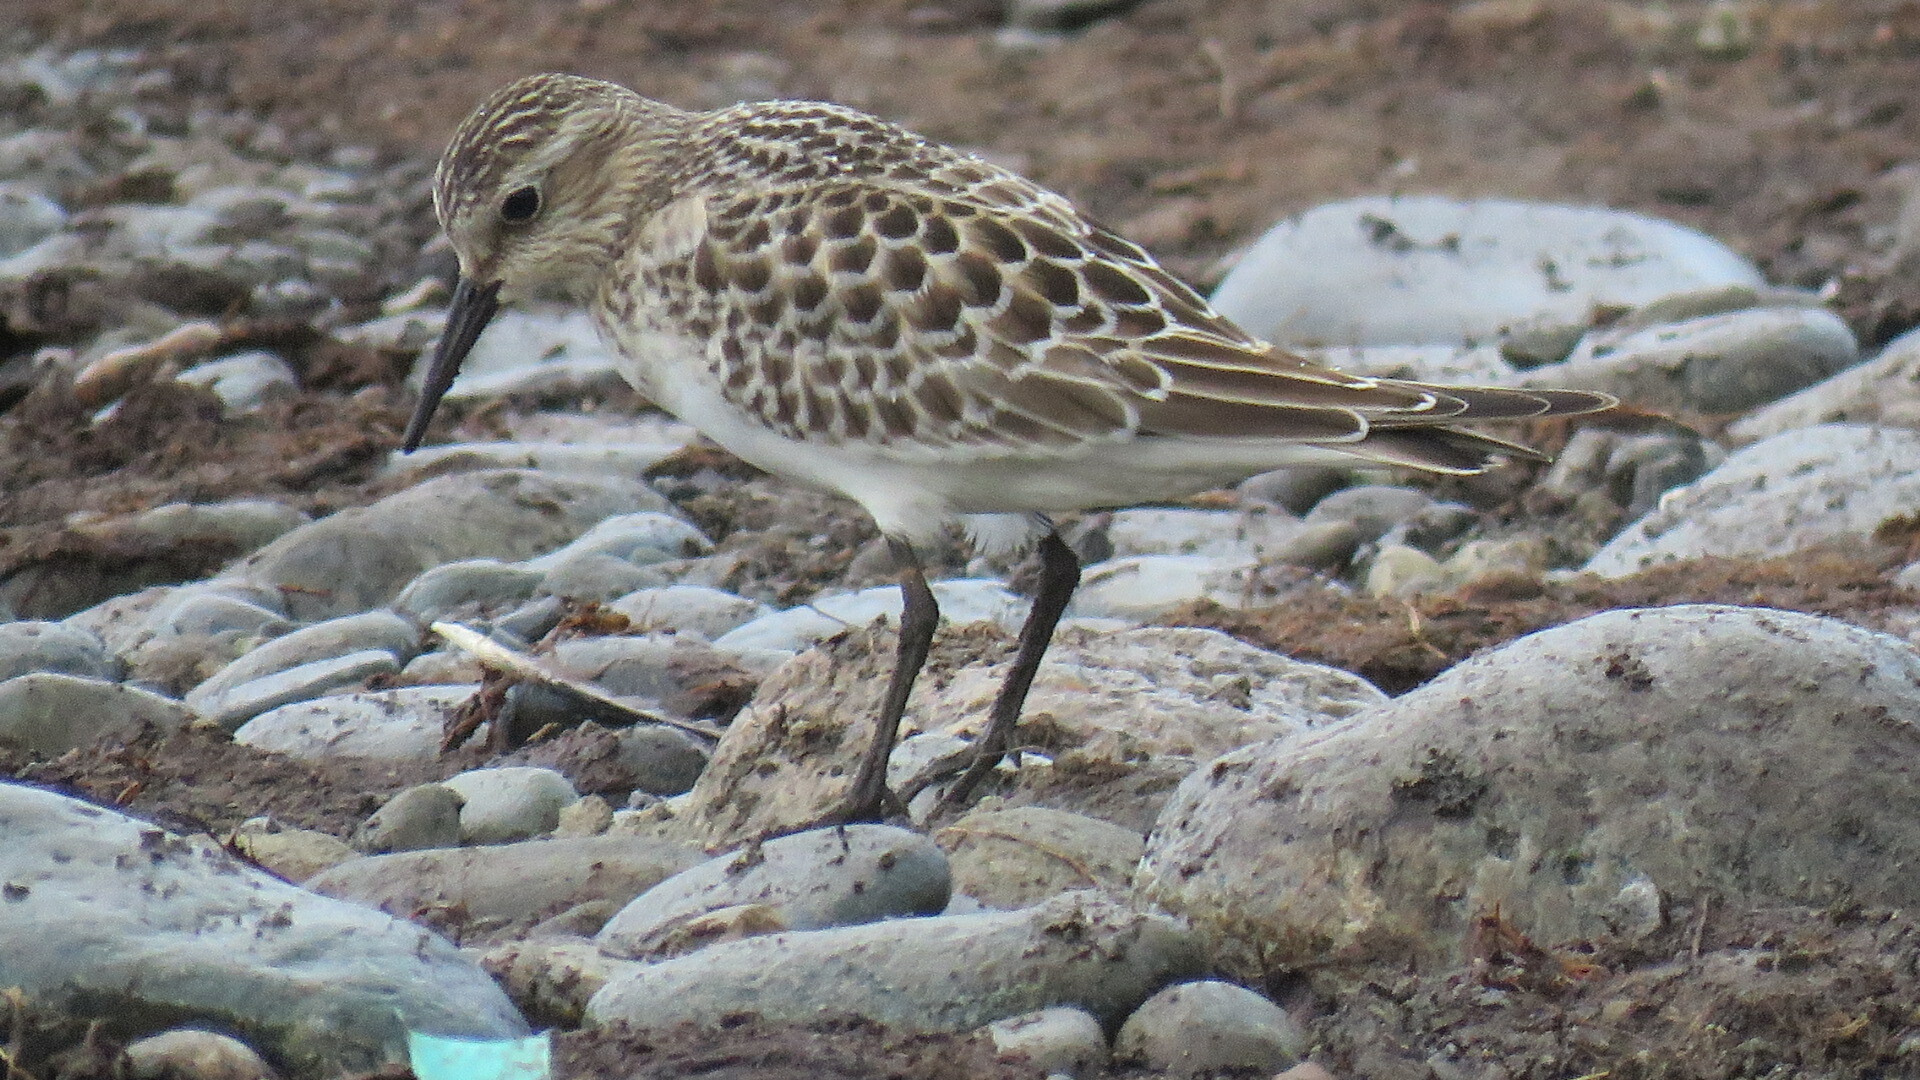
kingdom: Animalia
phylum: Chordata
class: Aves
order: Charadriiformes
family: Scolopacidae
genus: Calidris
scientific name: Calidris bairdii
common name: Baird's sandpiper
